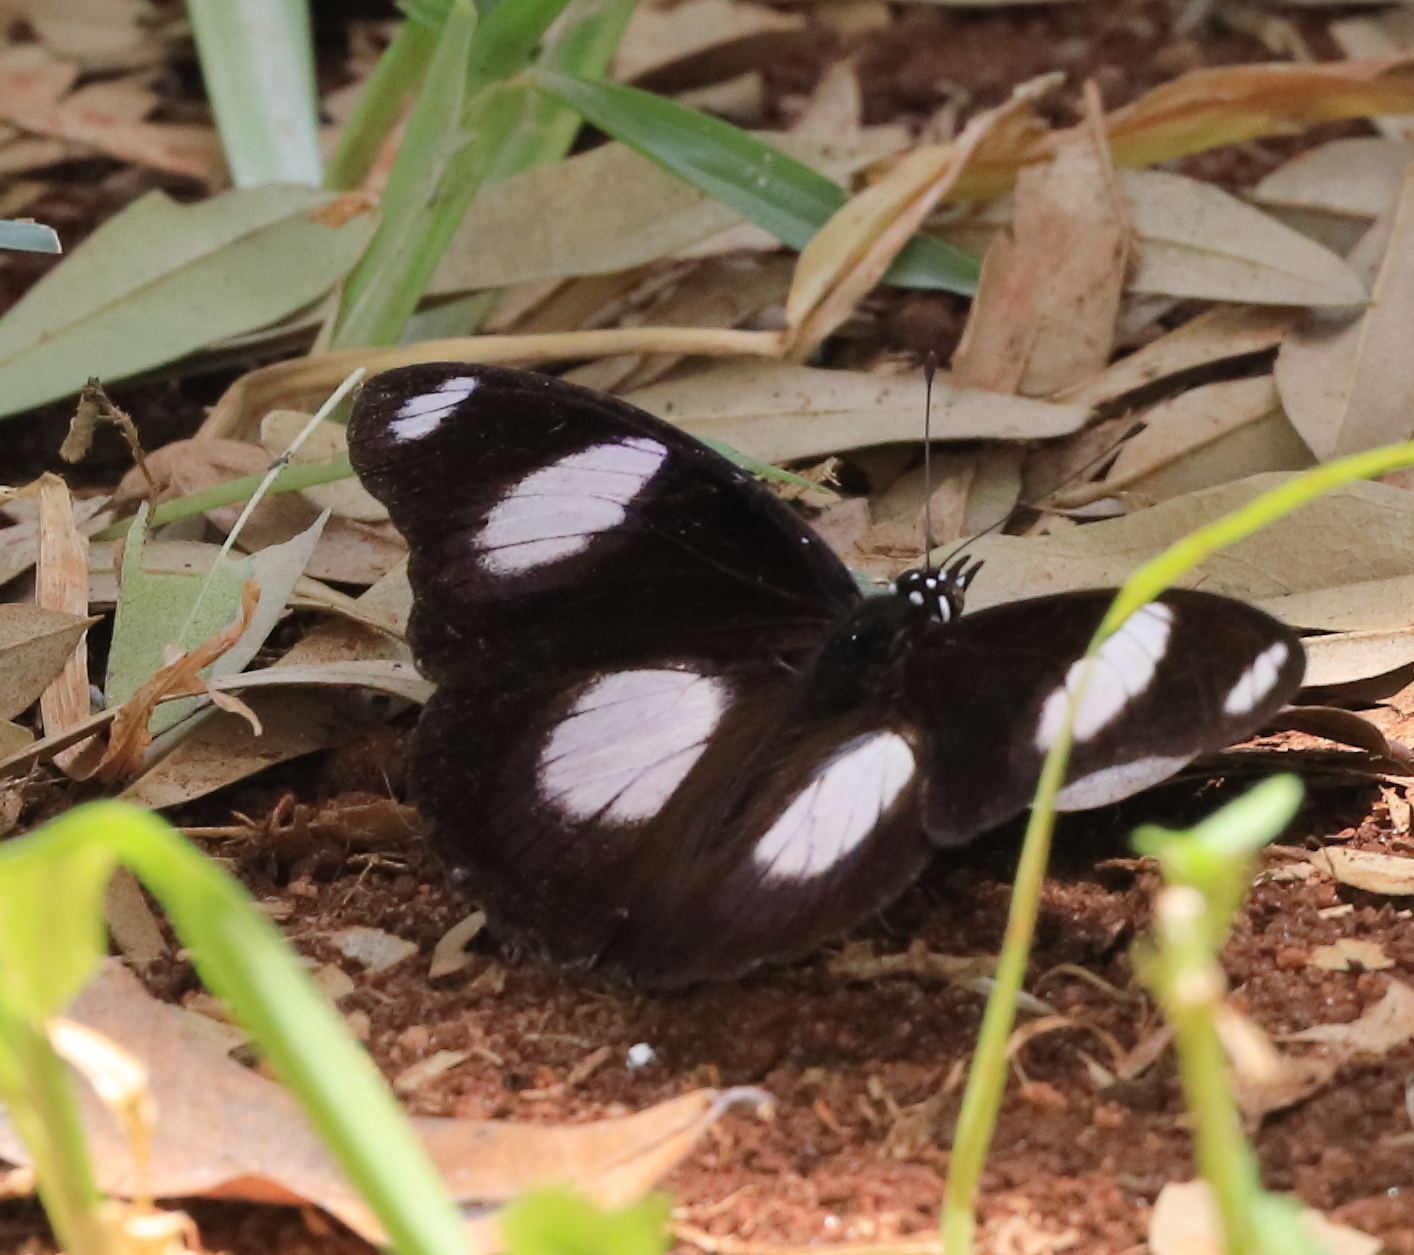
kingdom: Animalia
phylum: Arthropoda
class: Insecta
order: Lepidoptera
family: Nymphalidae
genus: Hypolimnas
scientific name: Hypolimnas misippus
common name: False plain tiger
